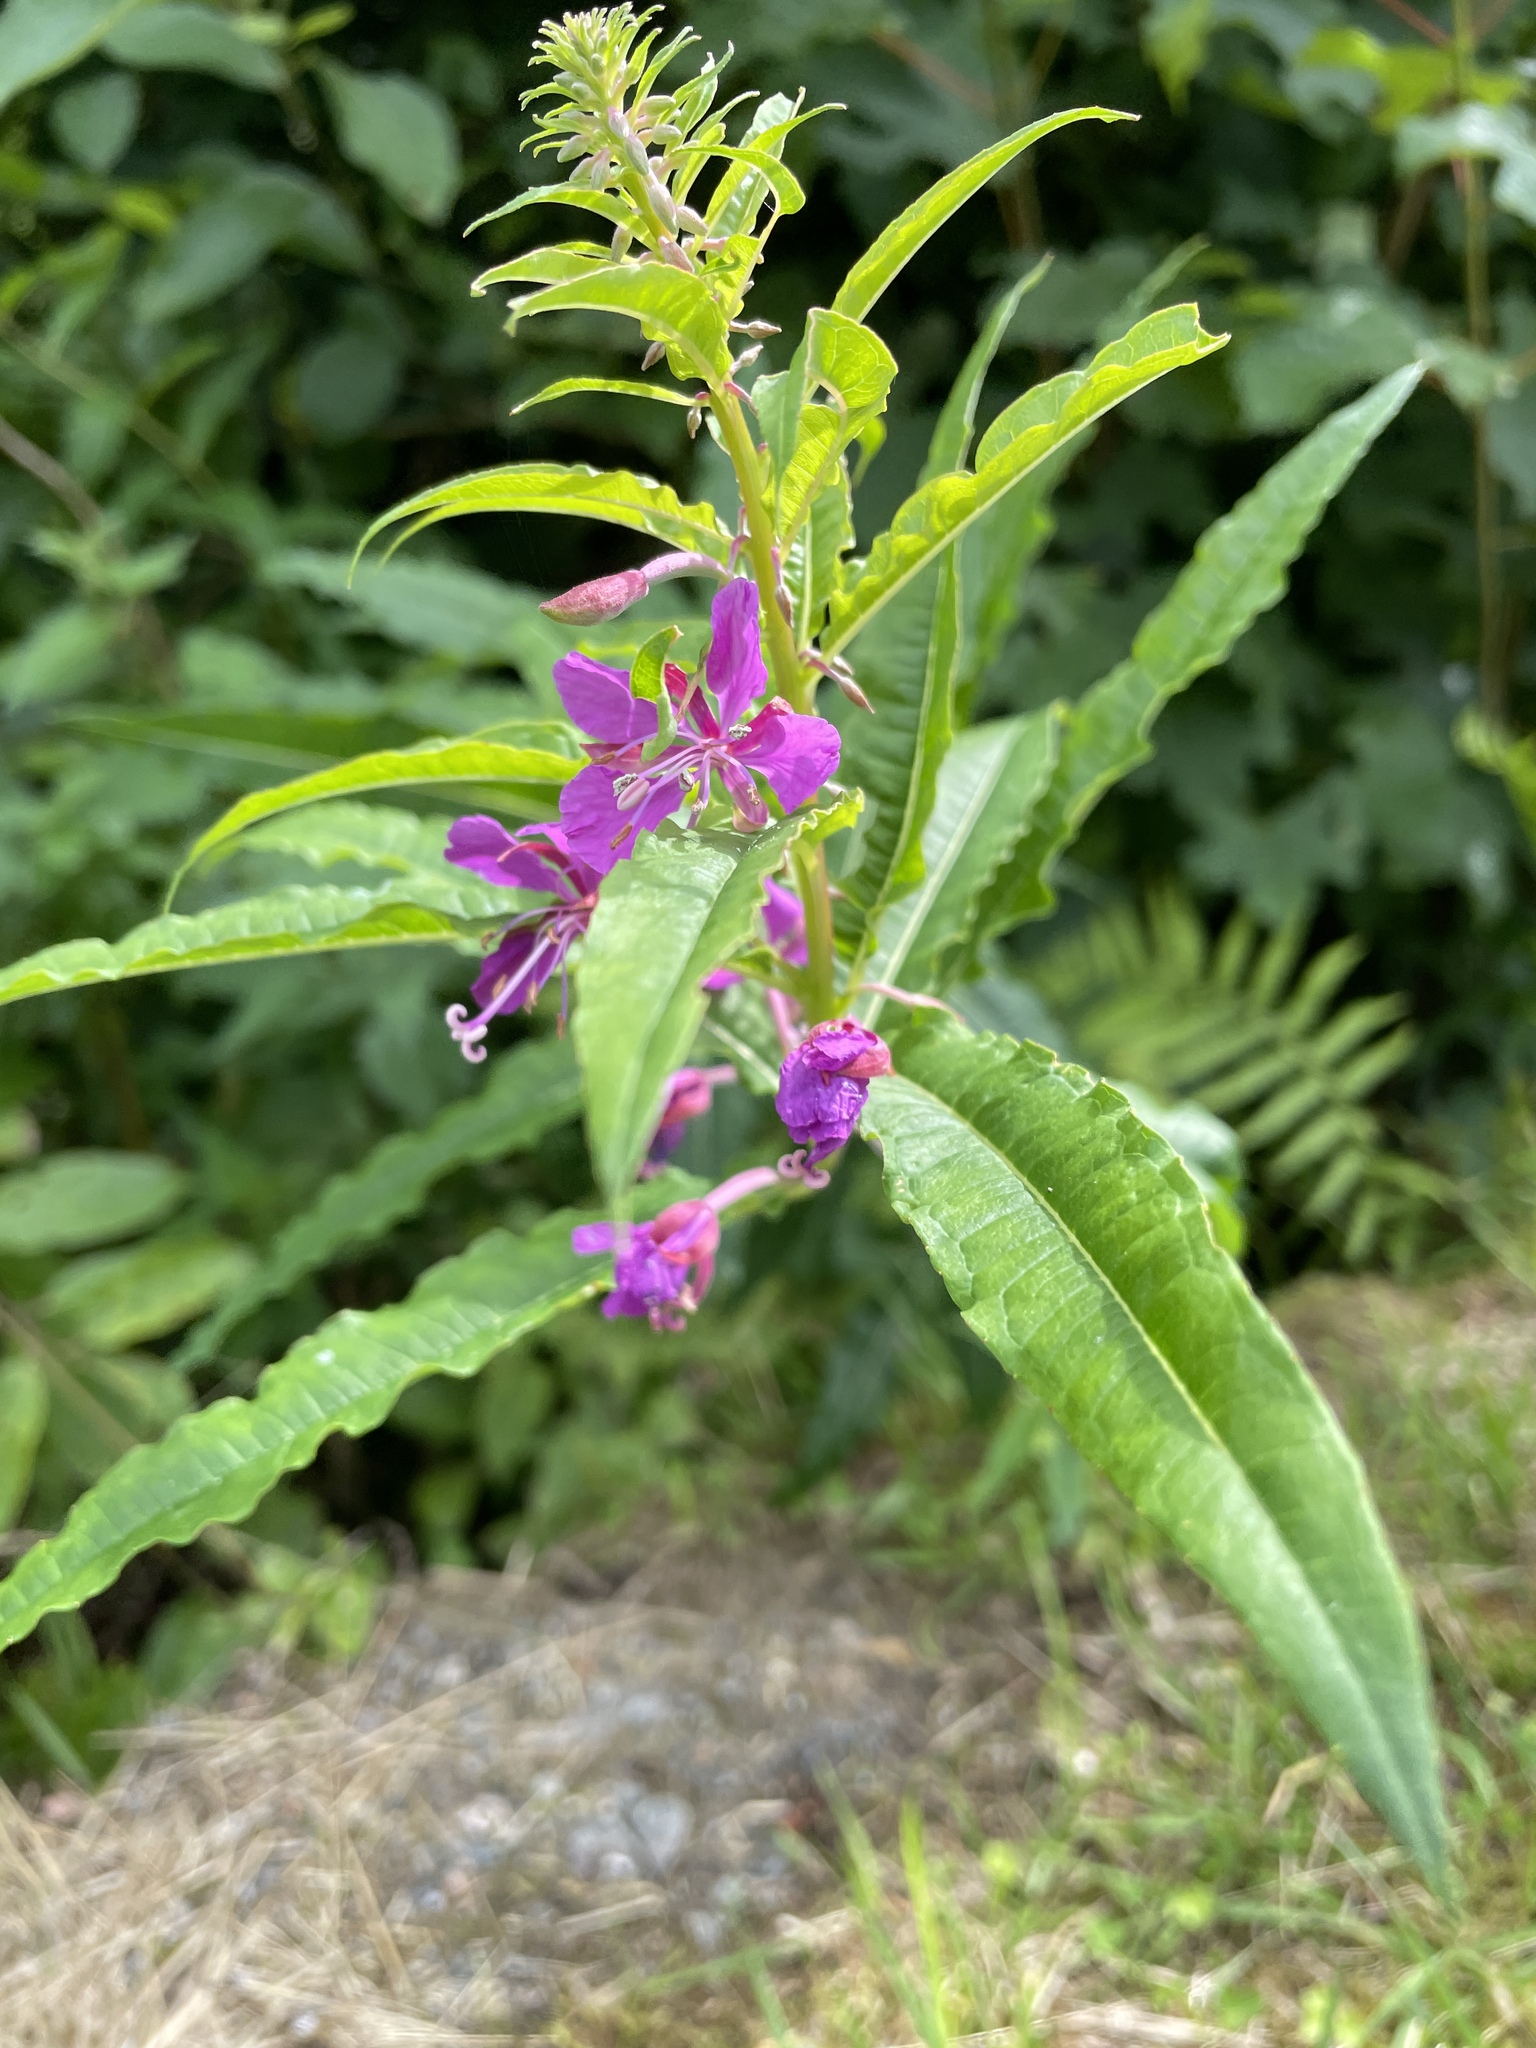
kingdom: Plantae
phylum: Tracheophyta
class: Magnoliopsida
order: Myrtales
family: Onagraceae
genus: Chamaenerion
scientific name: Chamaenerion angustifolium
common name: Fireweed
